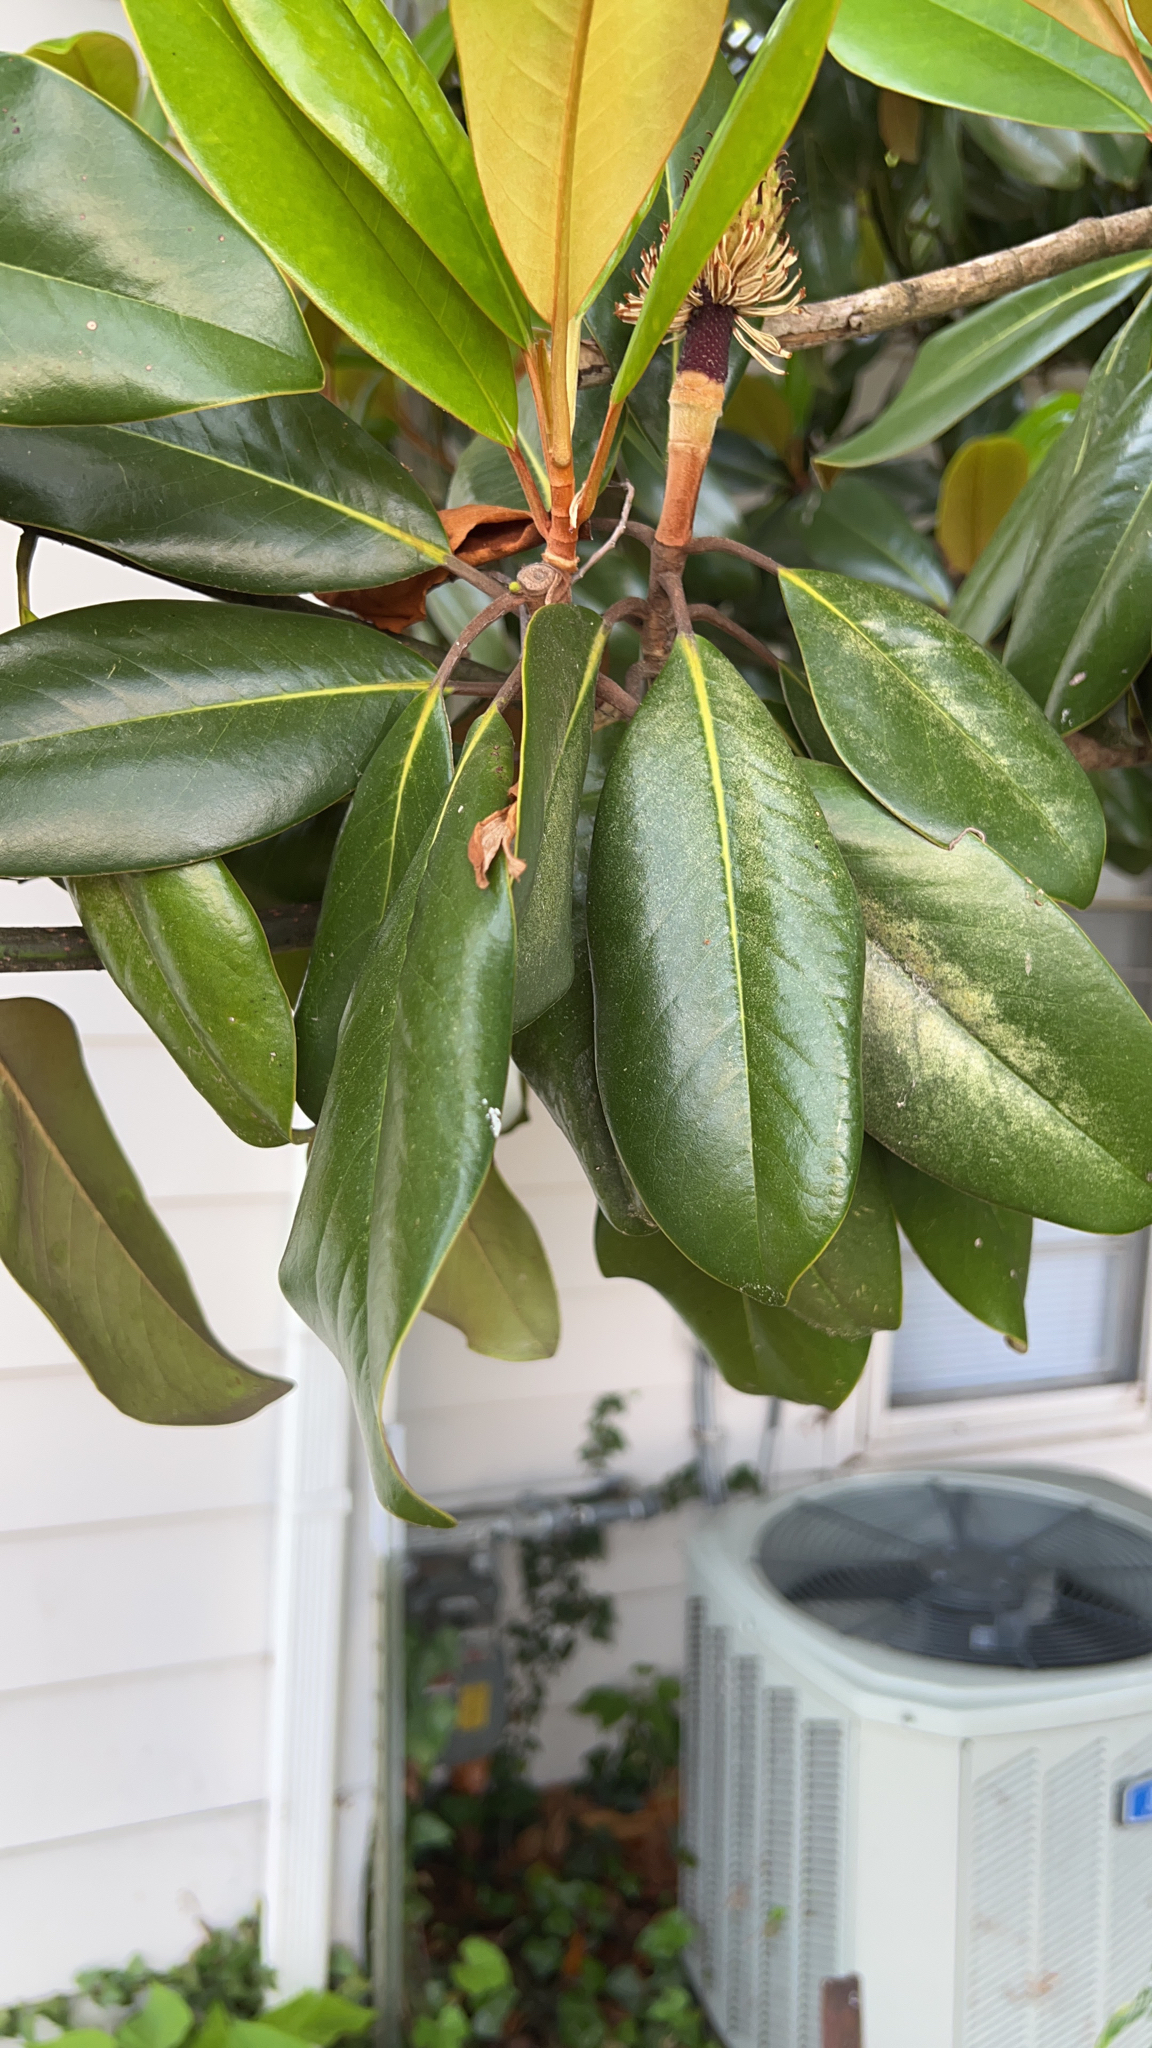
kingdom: Plantae
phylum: Tracheophyta
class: Magnoliopsida
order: Magnoliales
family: Magnoliaceae
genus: Magnolia
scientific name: Magnolia grandiflora
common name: Southern magnolia
